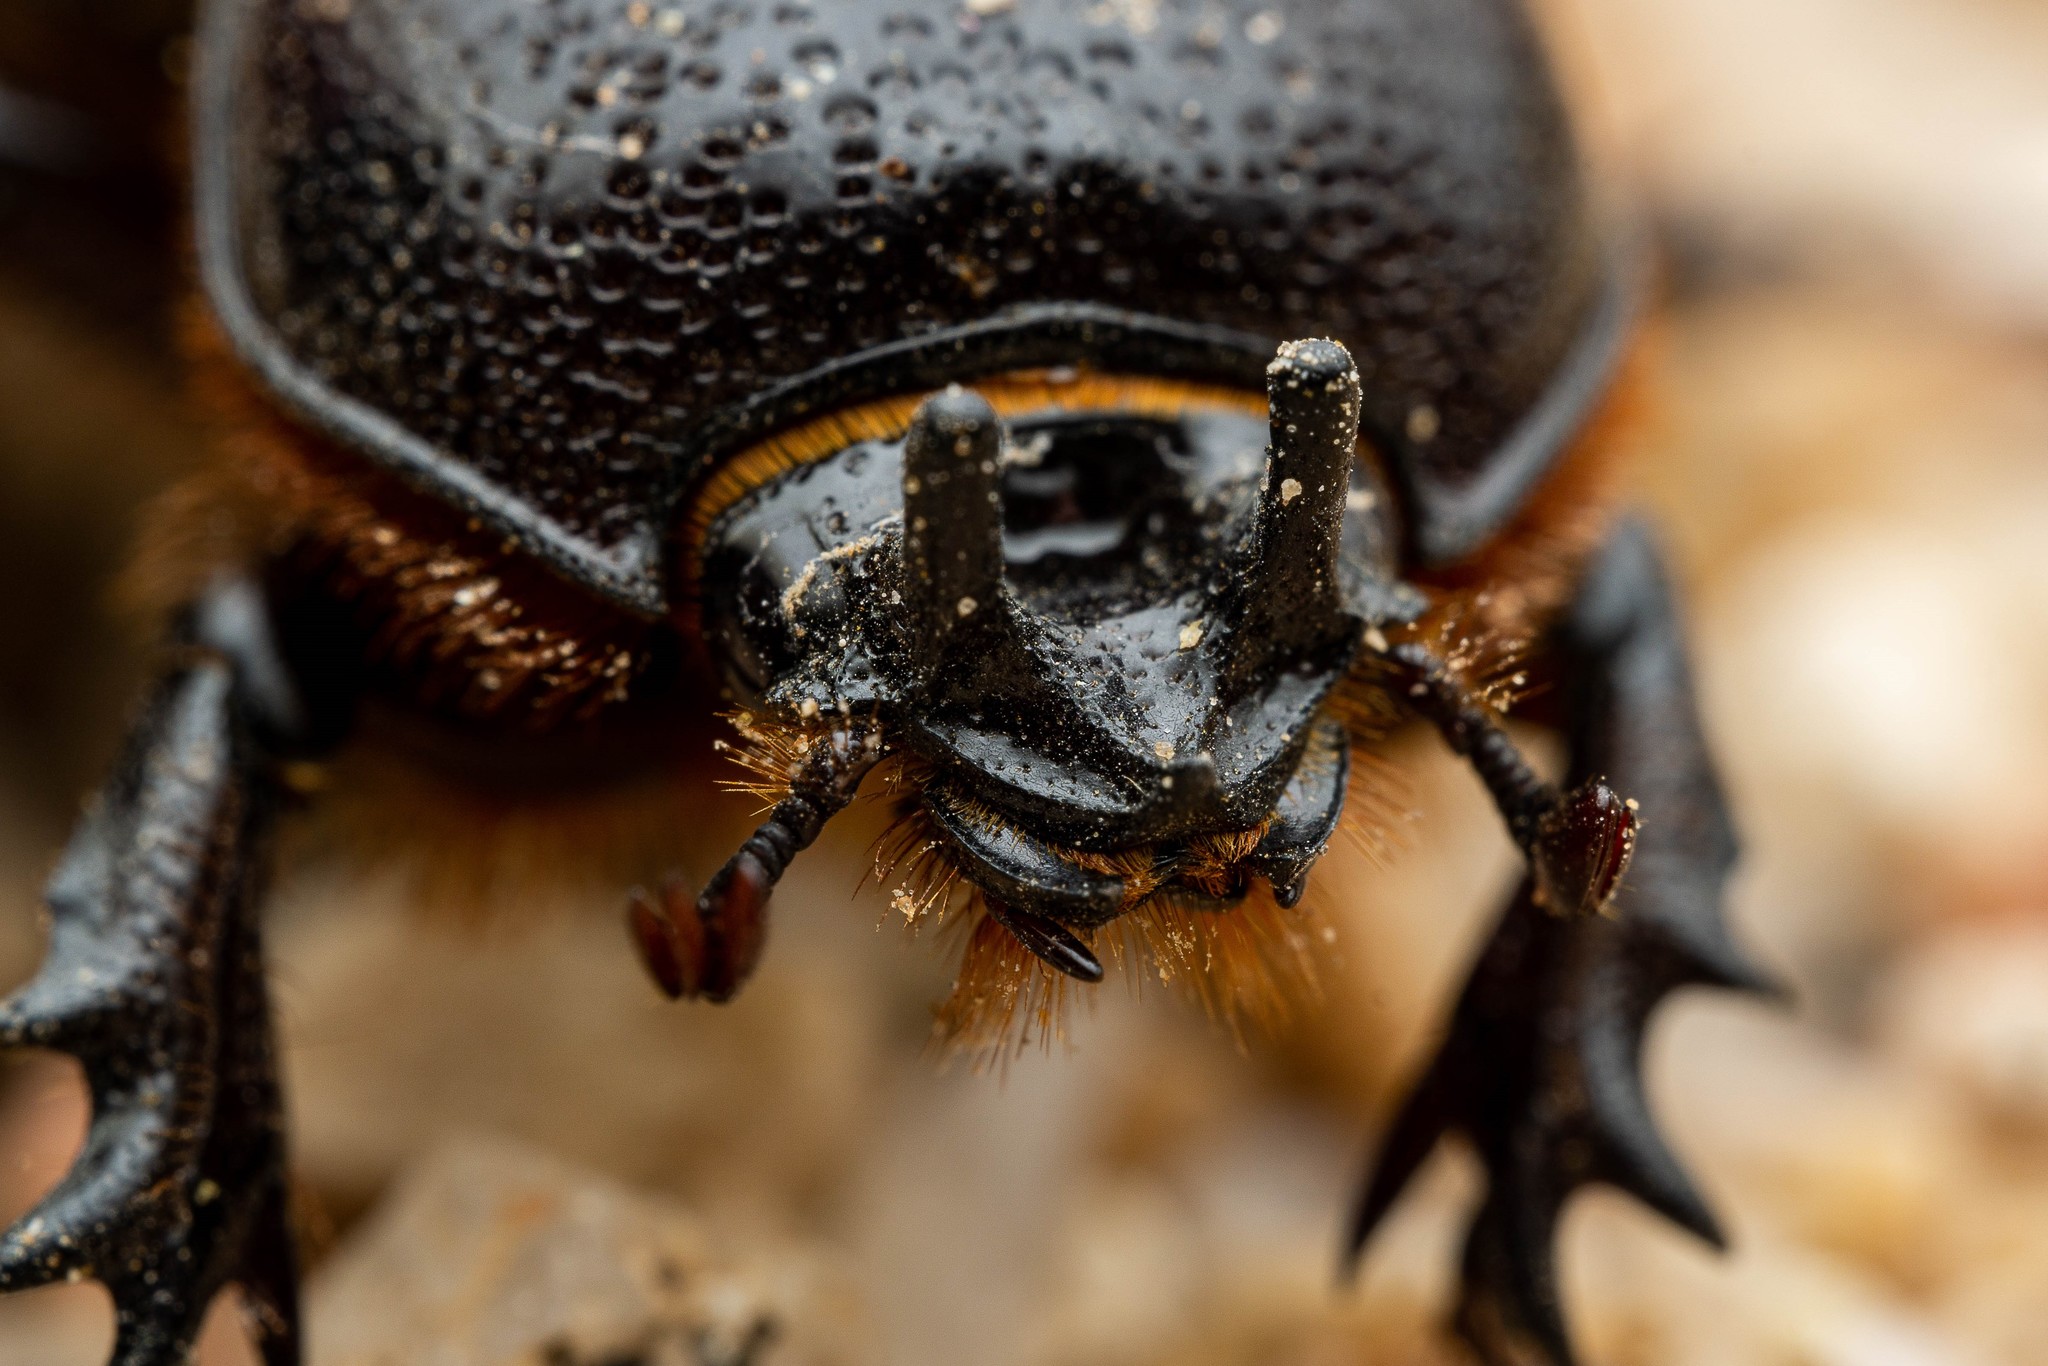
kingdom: Animalia
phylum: Arthropoda
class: Insecta
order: Coleoptera
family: Scarabaeidae
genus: Hemiphileurus
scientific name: Hemiphileurus illatus
